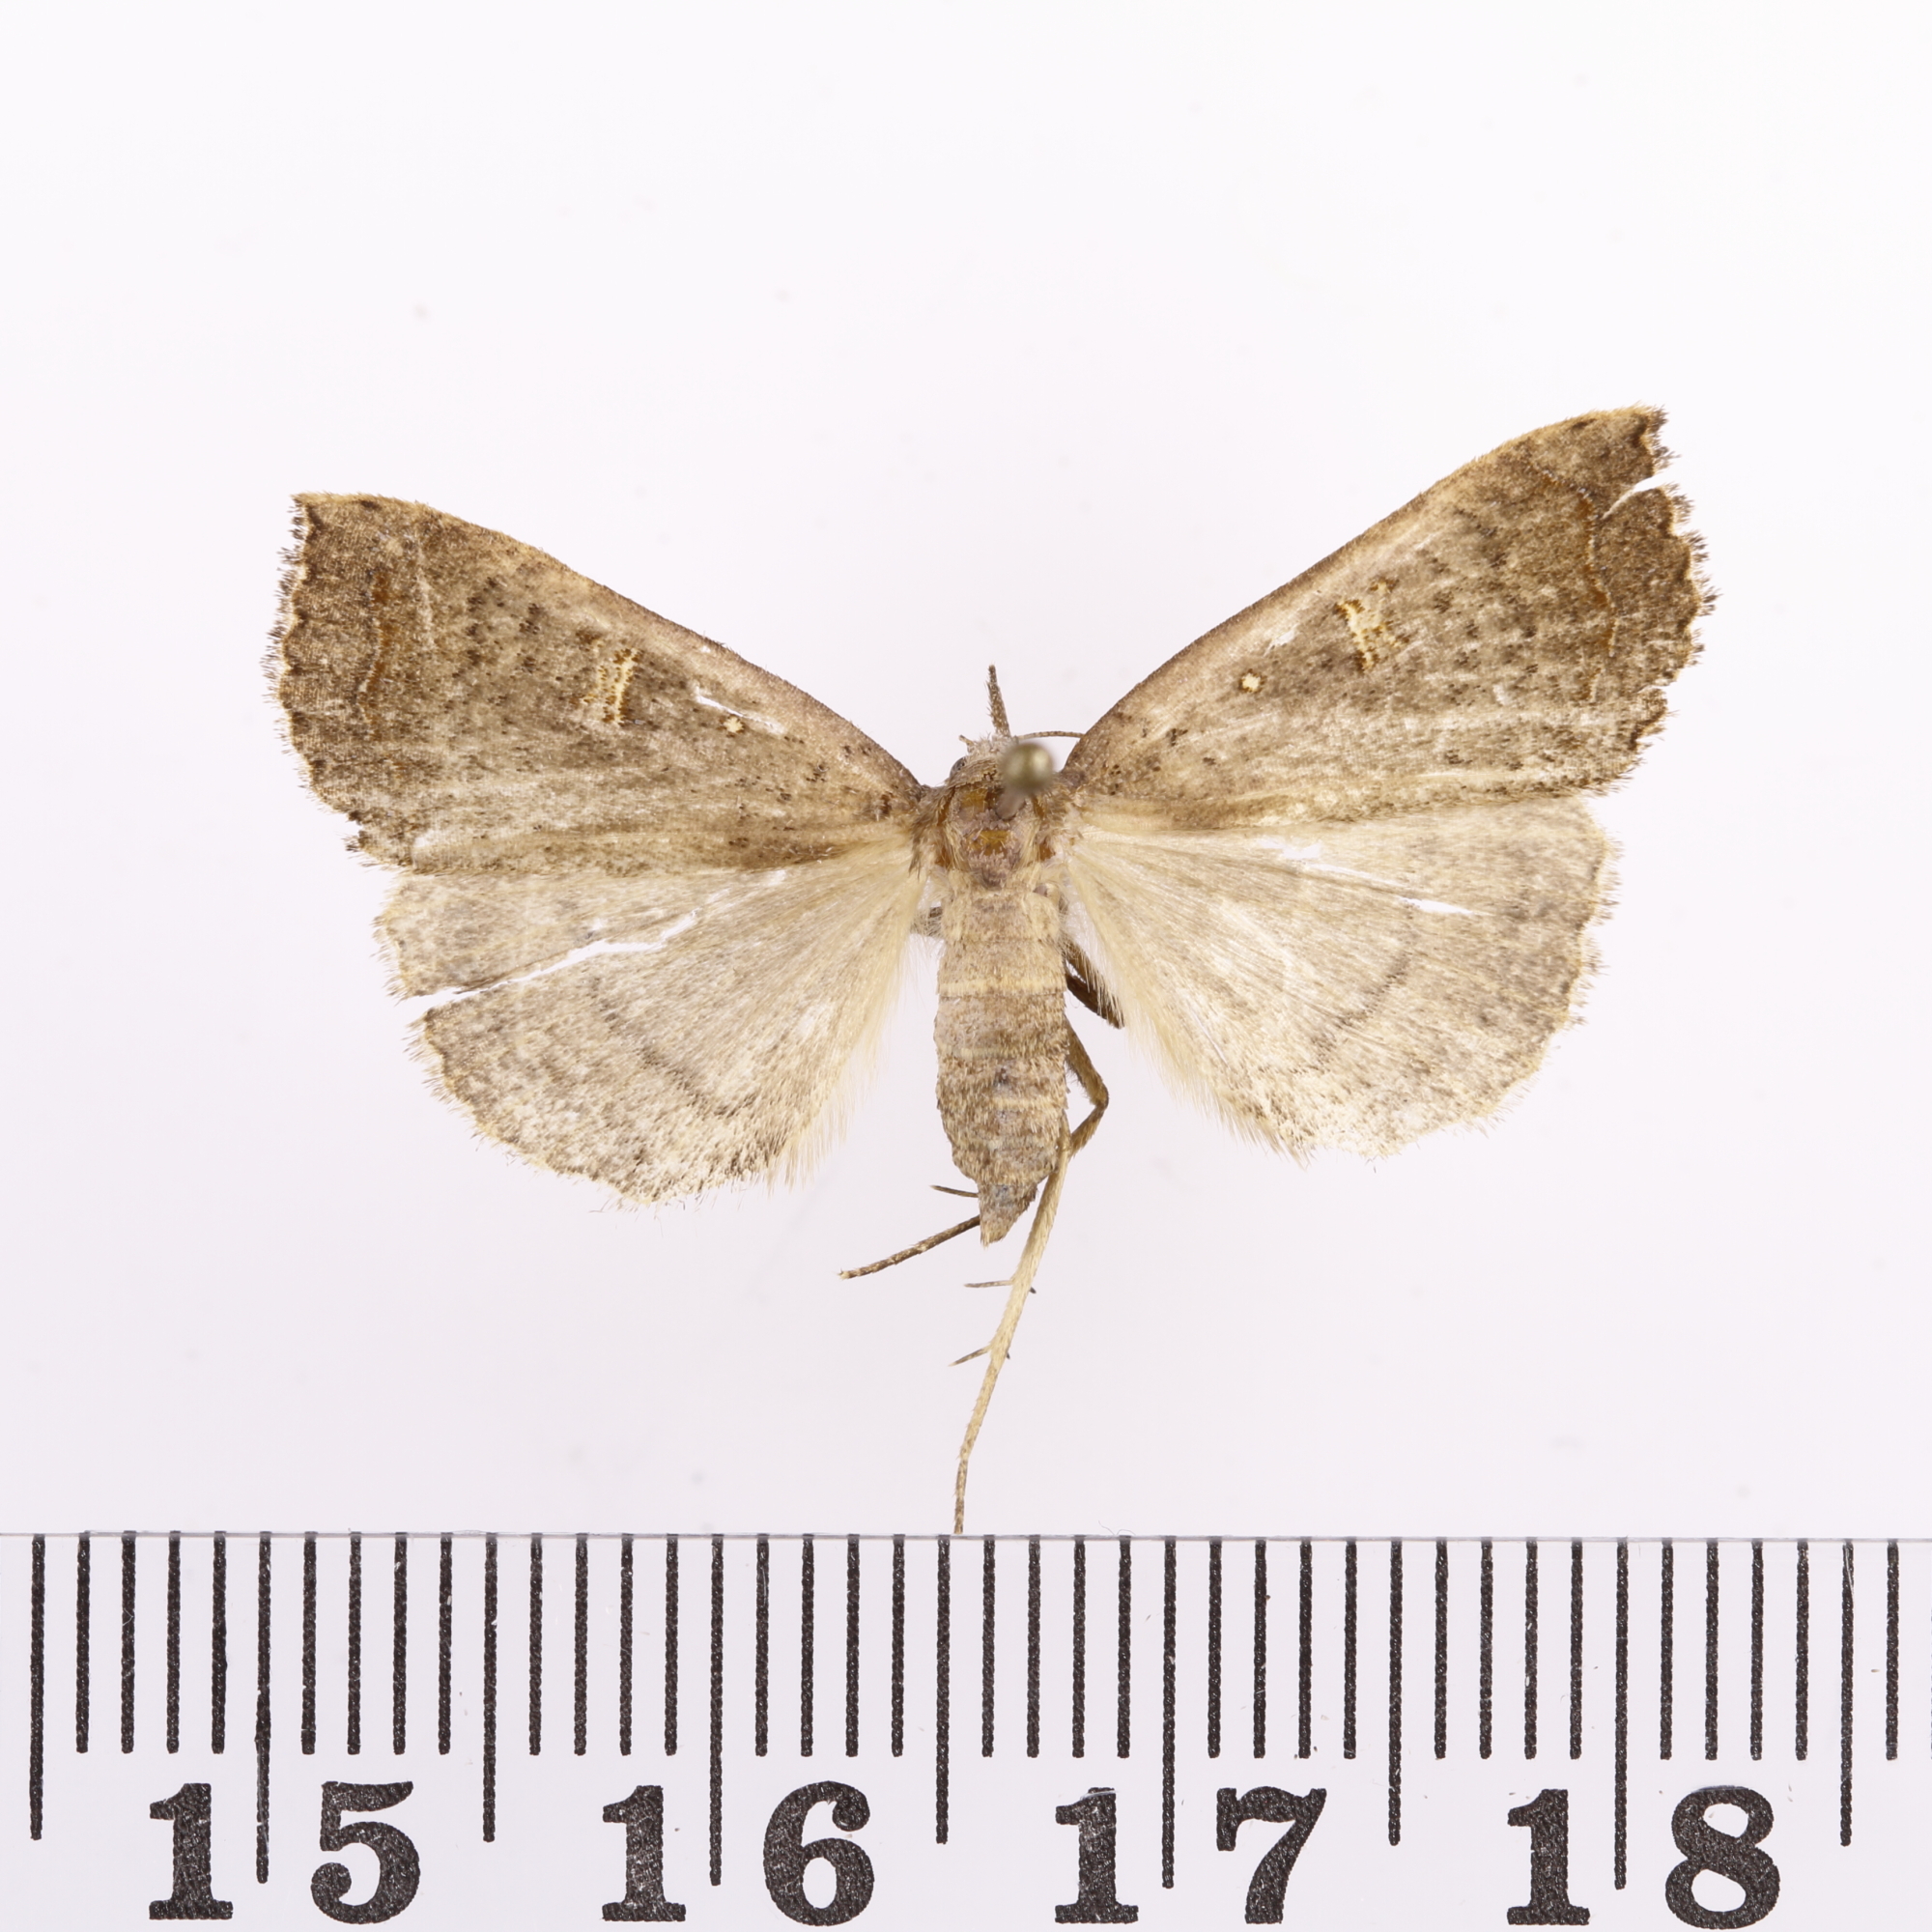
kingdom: Animalia
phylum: Arthropoda
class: Insecta
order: Lepidoptera
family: Erebidae
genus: Rhapsa
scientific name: Rhapsa scotosialis
